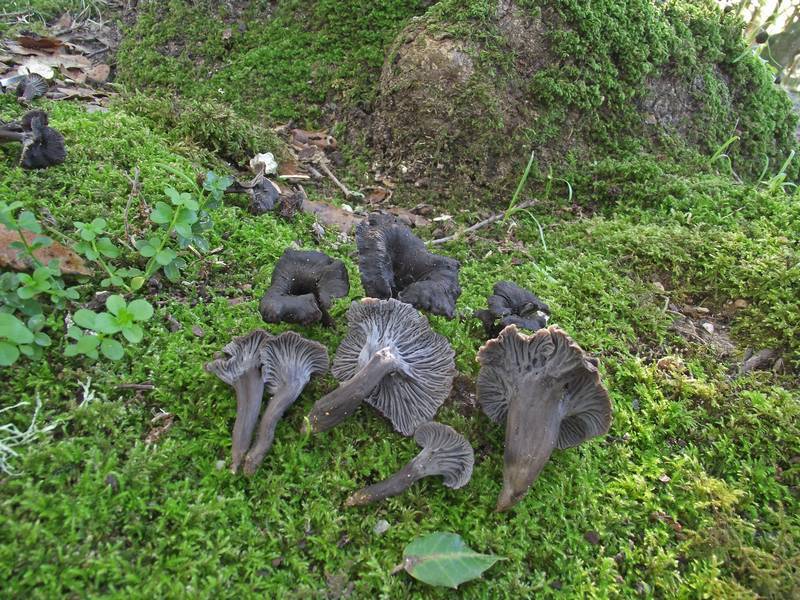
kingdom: Fungi
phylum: Basidiomycota
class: Agaricomycetes
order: Cantharellales
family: Hydnaceae
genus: Cantharellus
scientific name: Cantharellus cinereus
